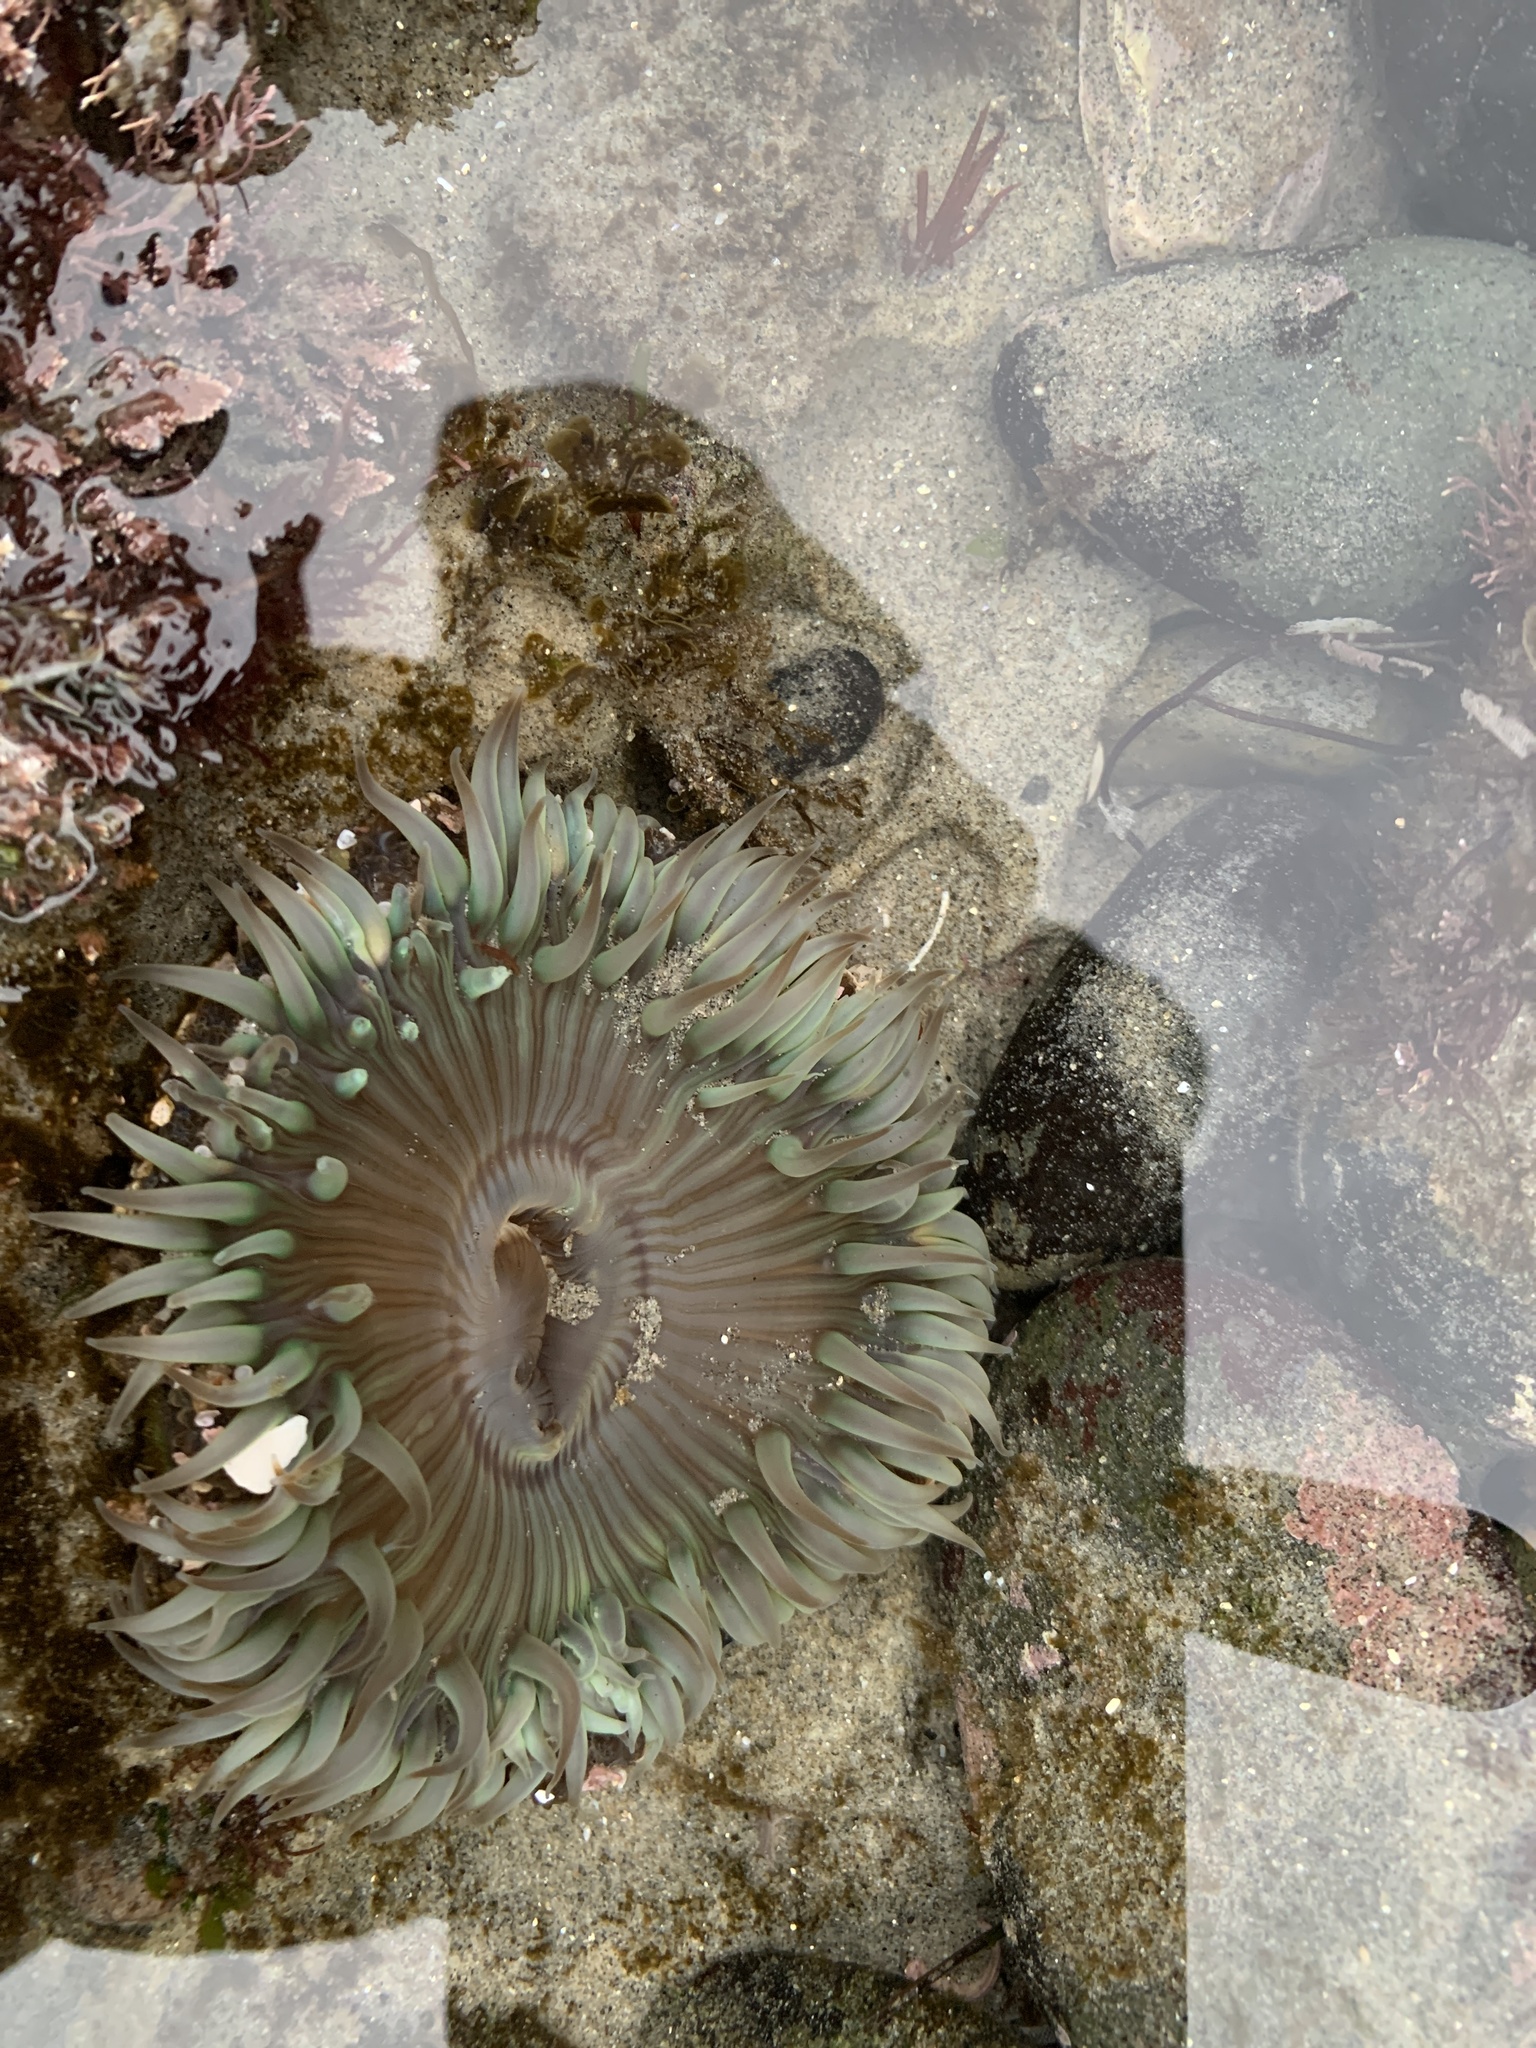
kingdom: Animalia
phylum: Cnidaria
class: Anthozoa
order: Actiniaria
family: Actiniidae
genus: Anthopleura
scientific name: Anthopleura sola
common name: Sun anemone
